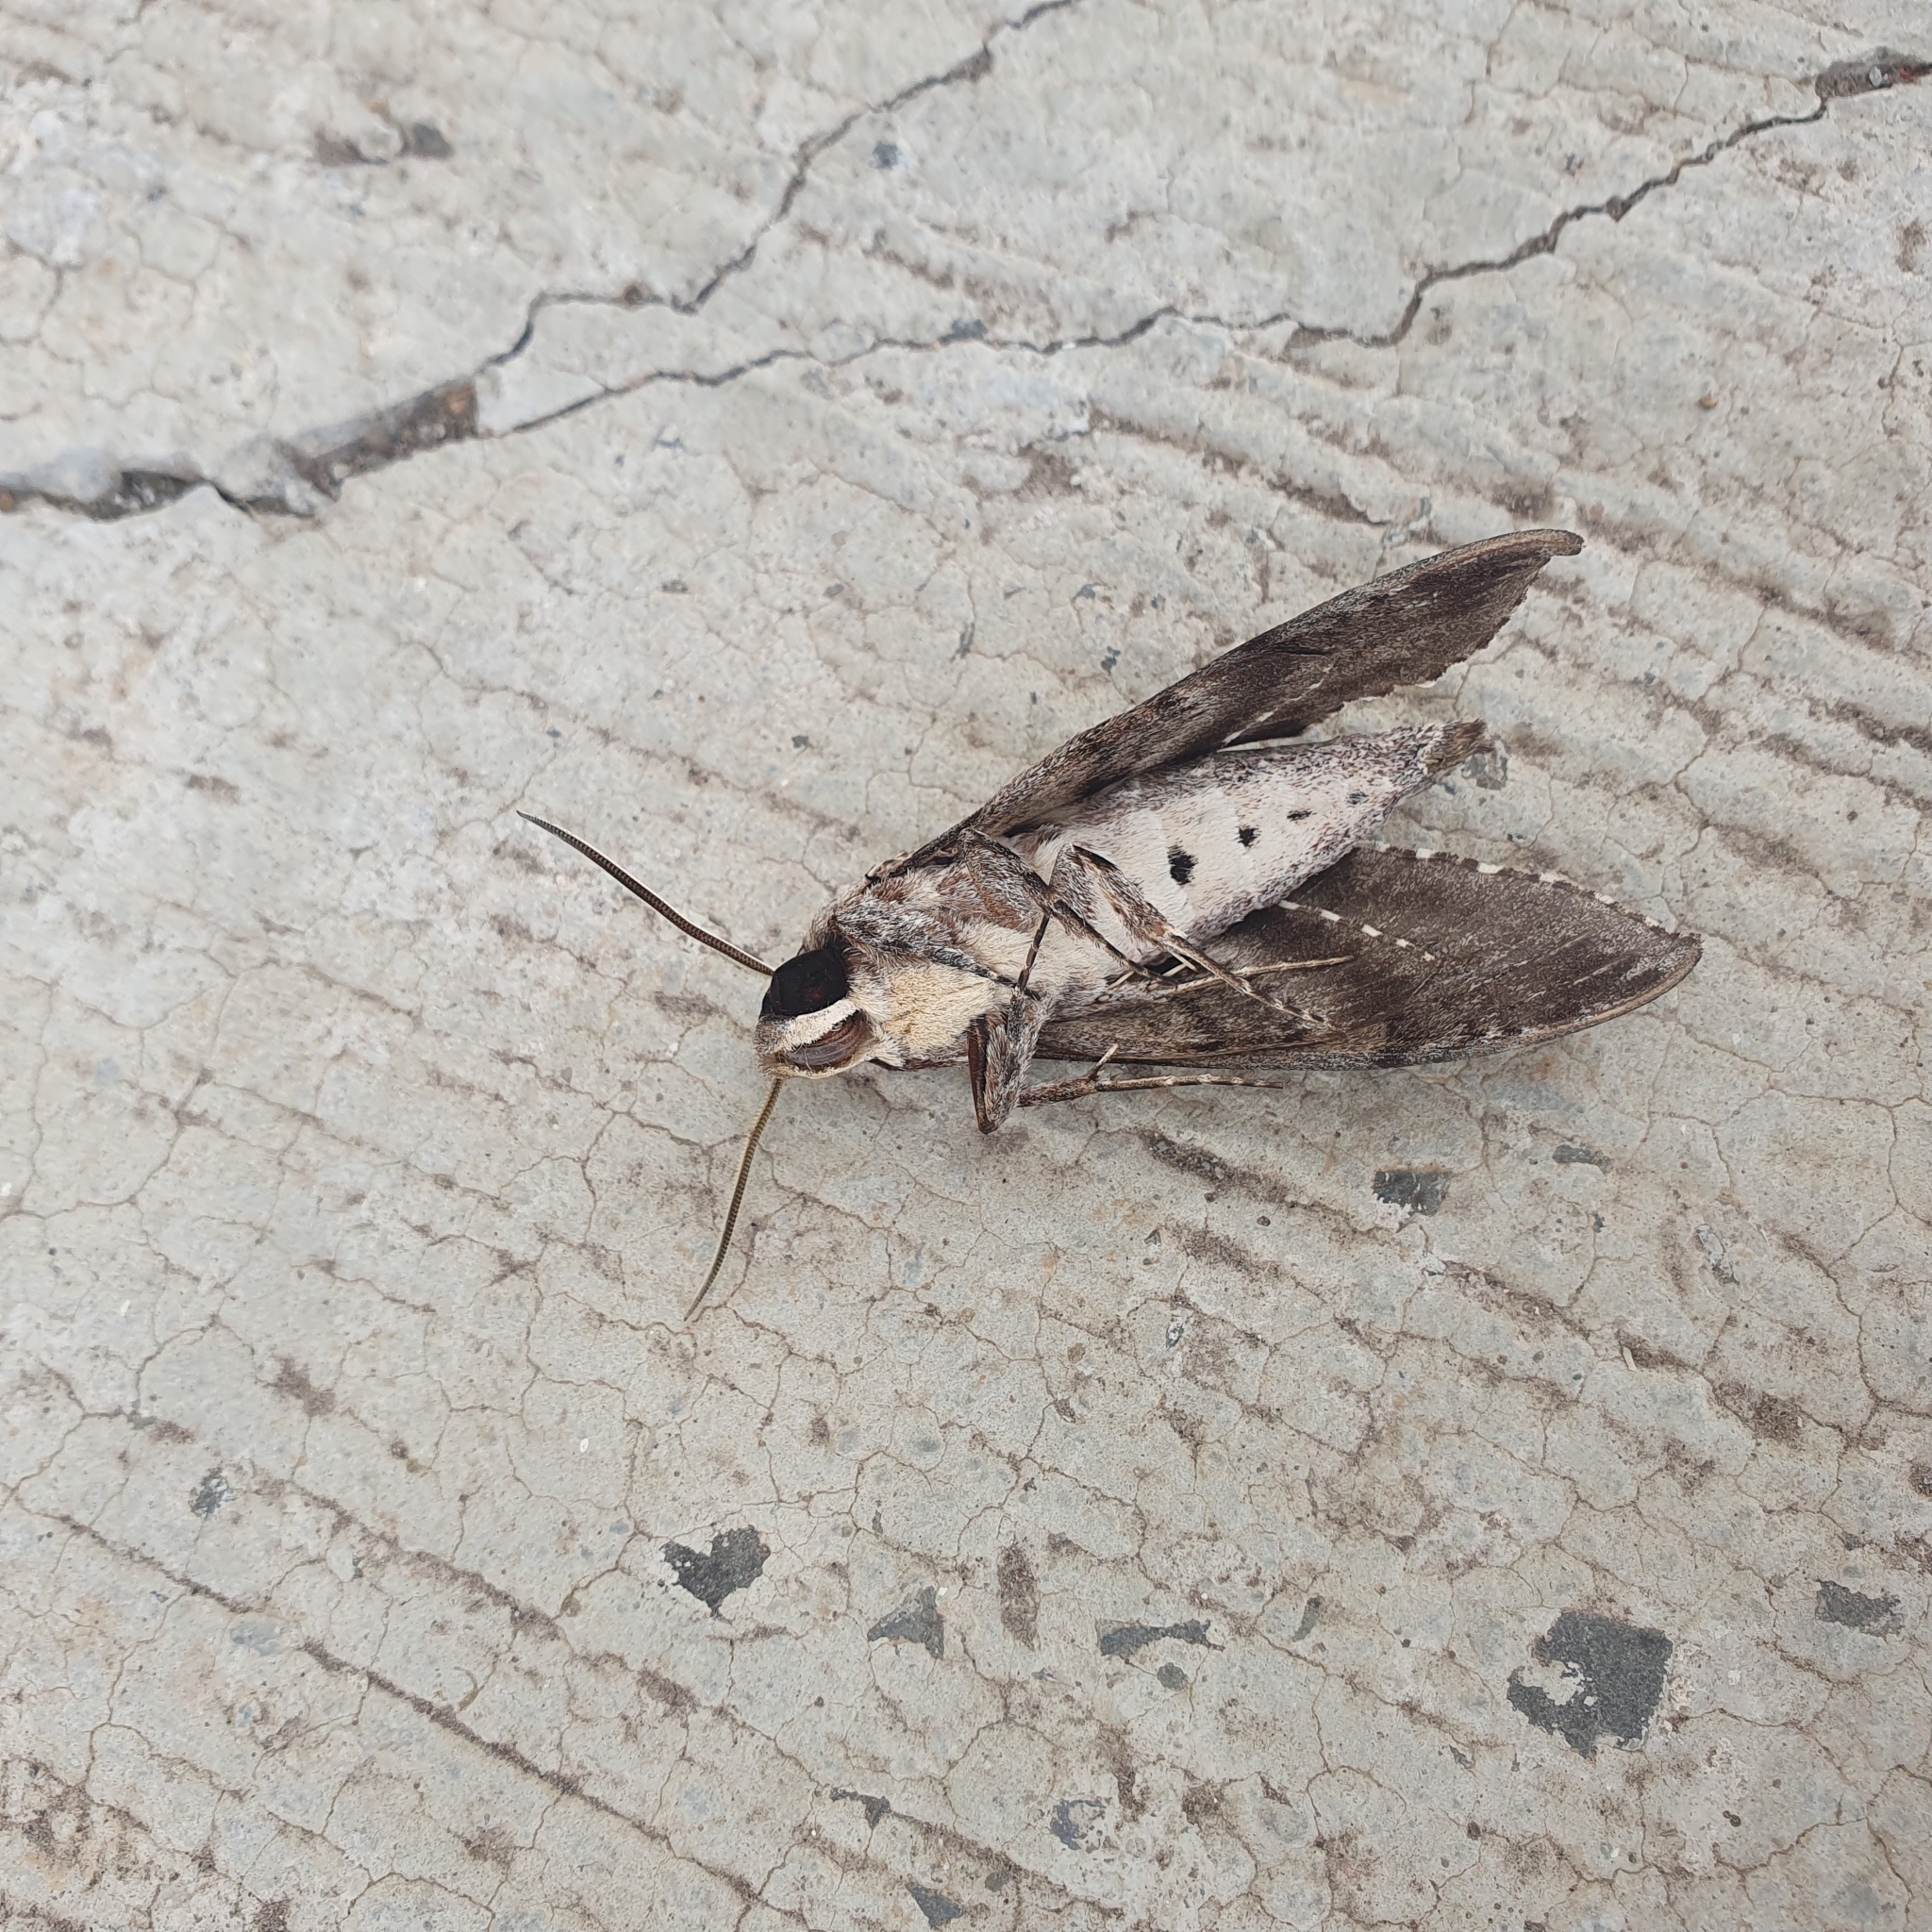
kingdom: Animalia
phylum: Arthropoda
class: Insecta
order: Lepidoptera
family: Sphingidae
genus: Agrius
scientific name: Agrius cingulata
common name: Pink-spotted hawkmoth
